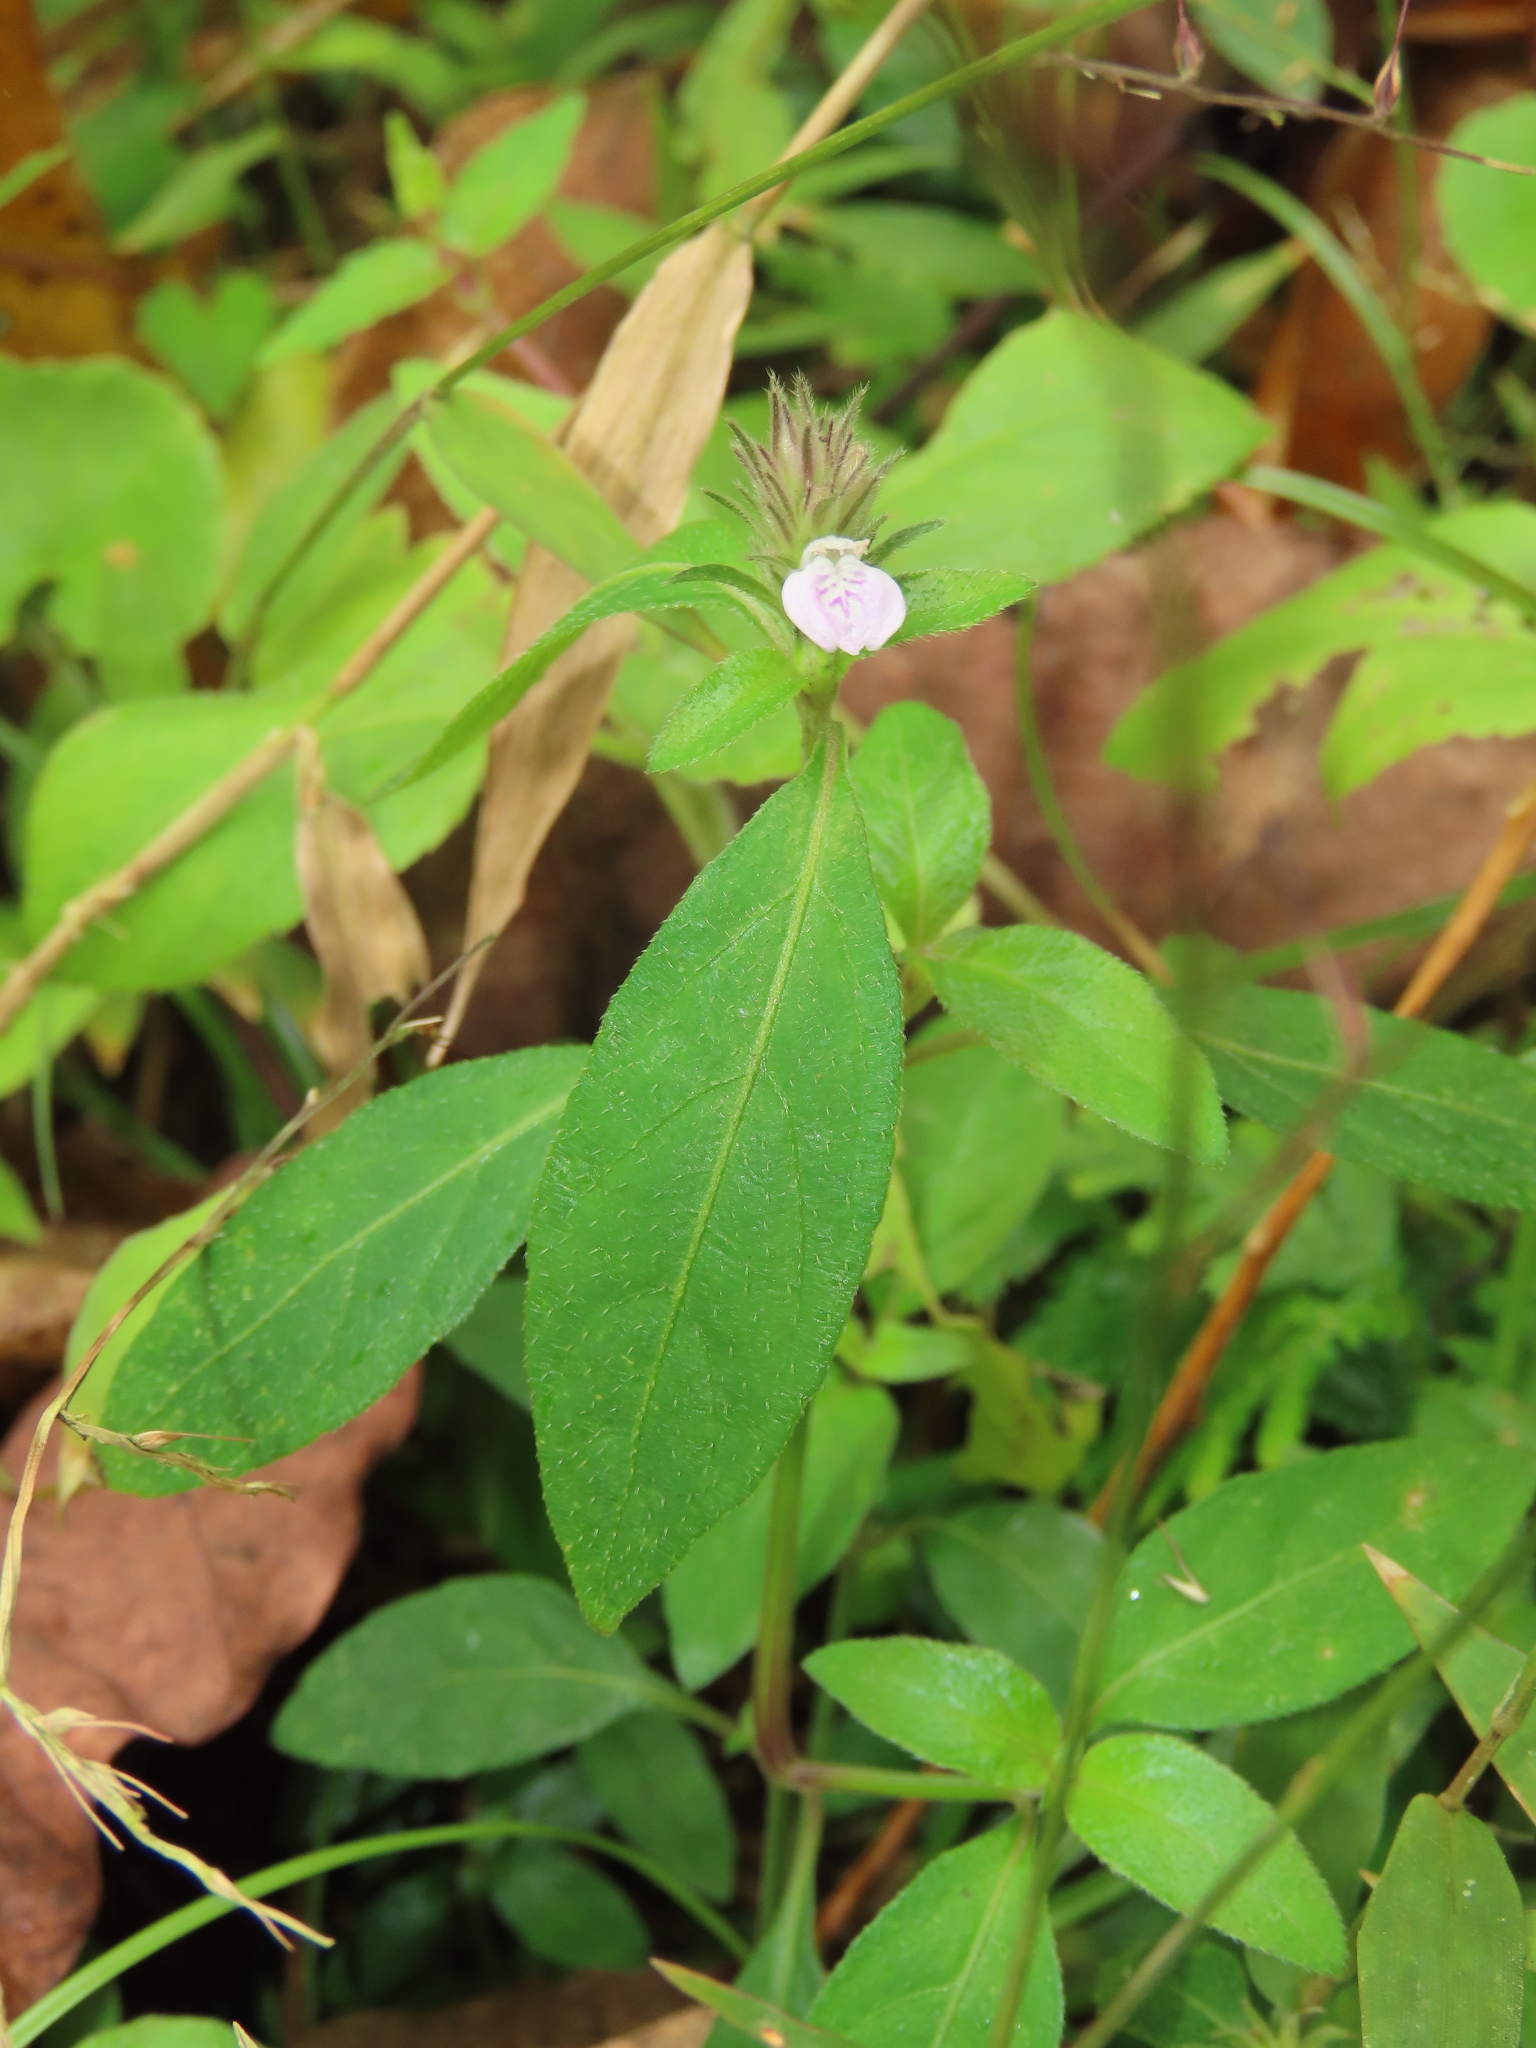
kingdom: Plantae
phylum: Tracheophyta
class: Magnoliopsida
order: Lamiales
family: Acanthaceae
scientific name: Acanthaceae
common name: Acanthaceae
